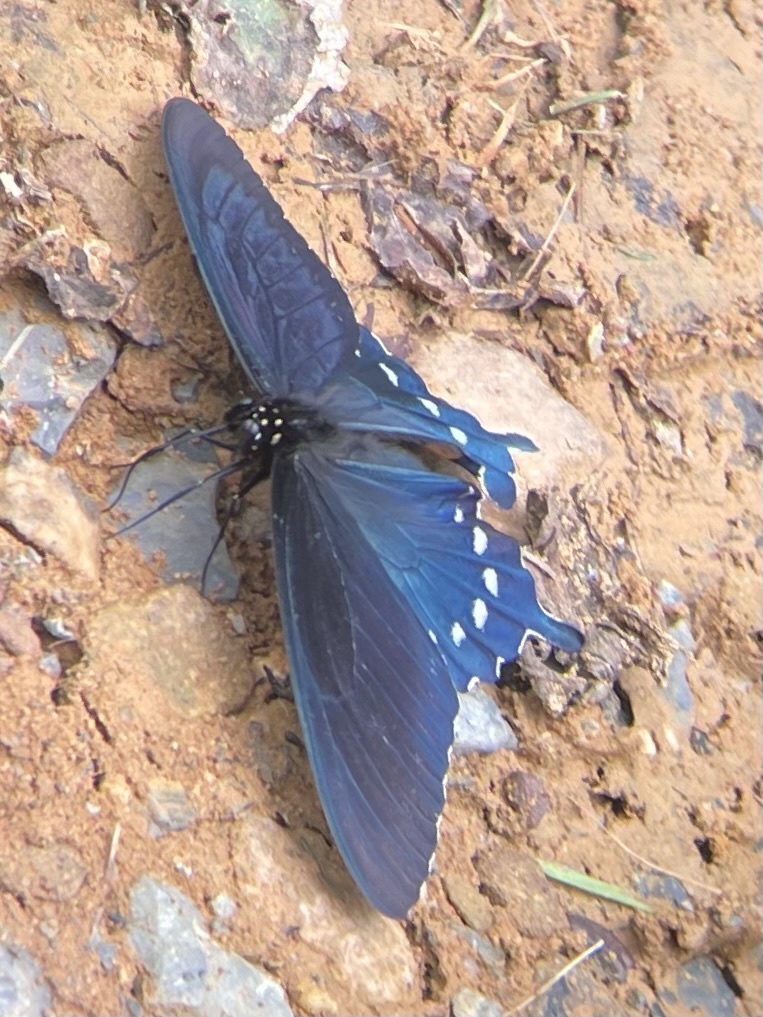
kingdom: Animalia
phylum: Arthropoda
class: Insecta
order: Lepidoptera
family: Papilionidae
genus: Battus
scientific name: Battus philenor
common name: Pipevine swallowtail
